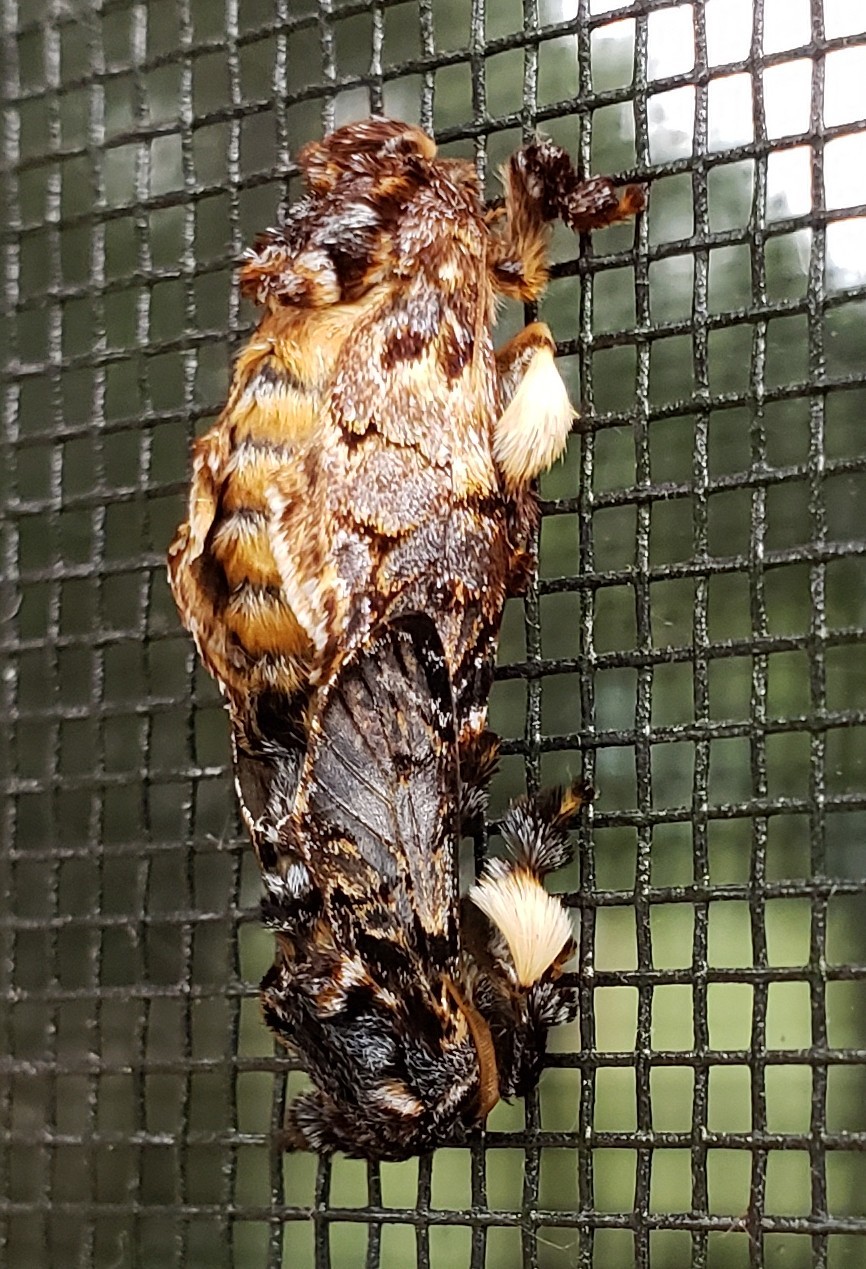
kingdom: Animalia
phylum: Arthropoda
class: Insecta
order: Lepidoptera
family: Limacodidae
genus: Phobetron
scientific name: Phobetron pithecium
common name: Hag moth
